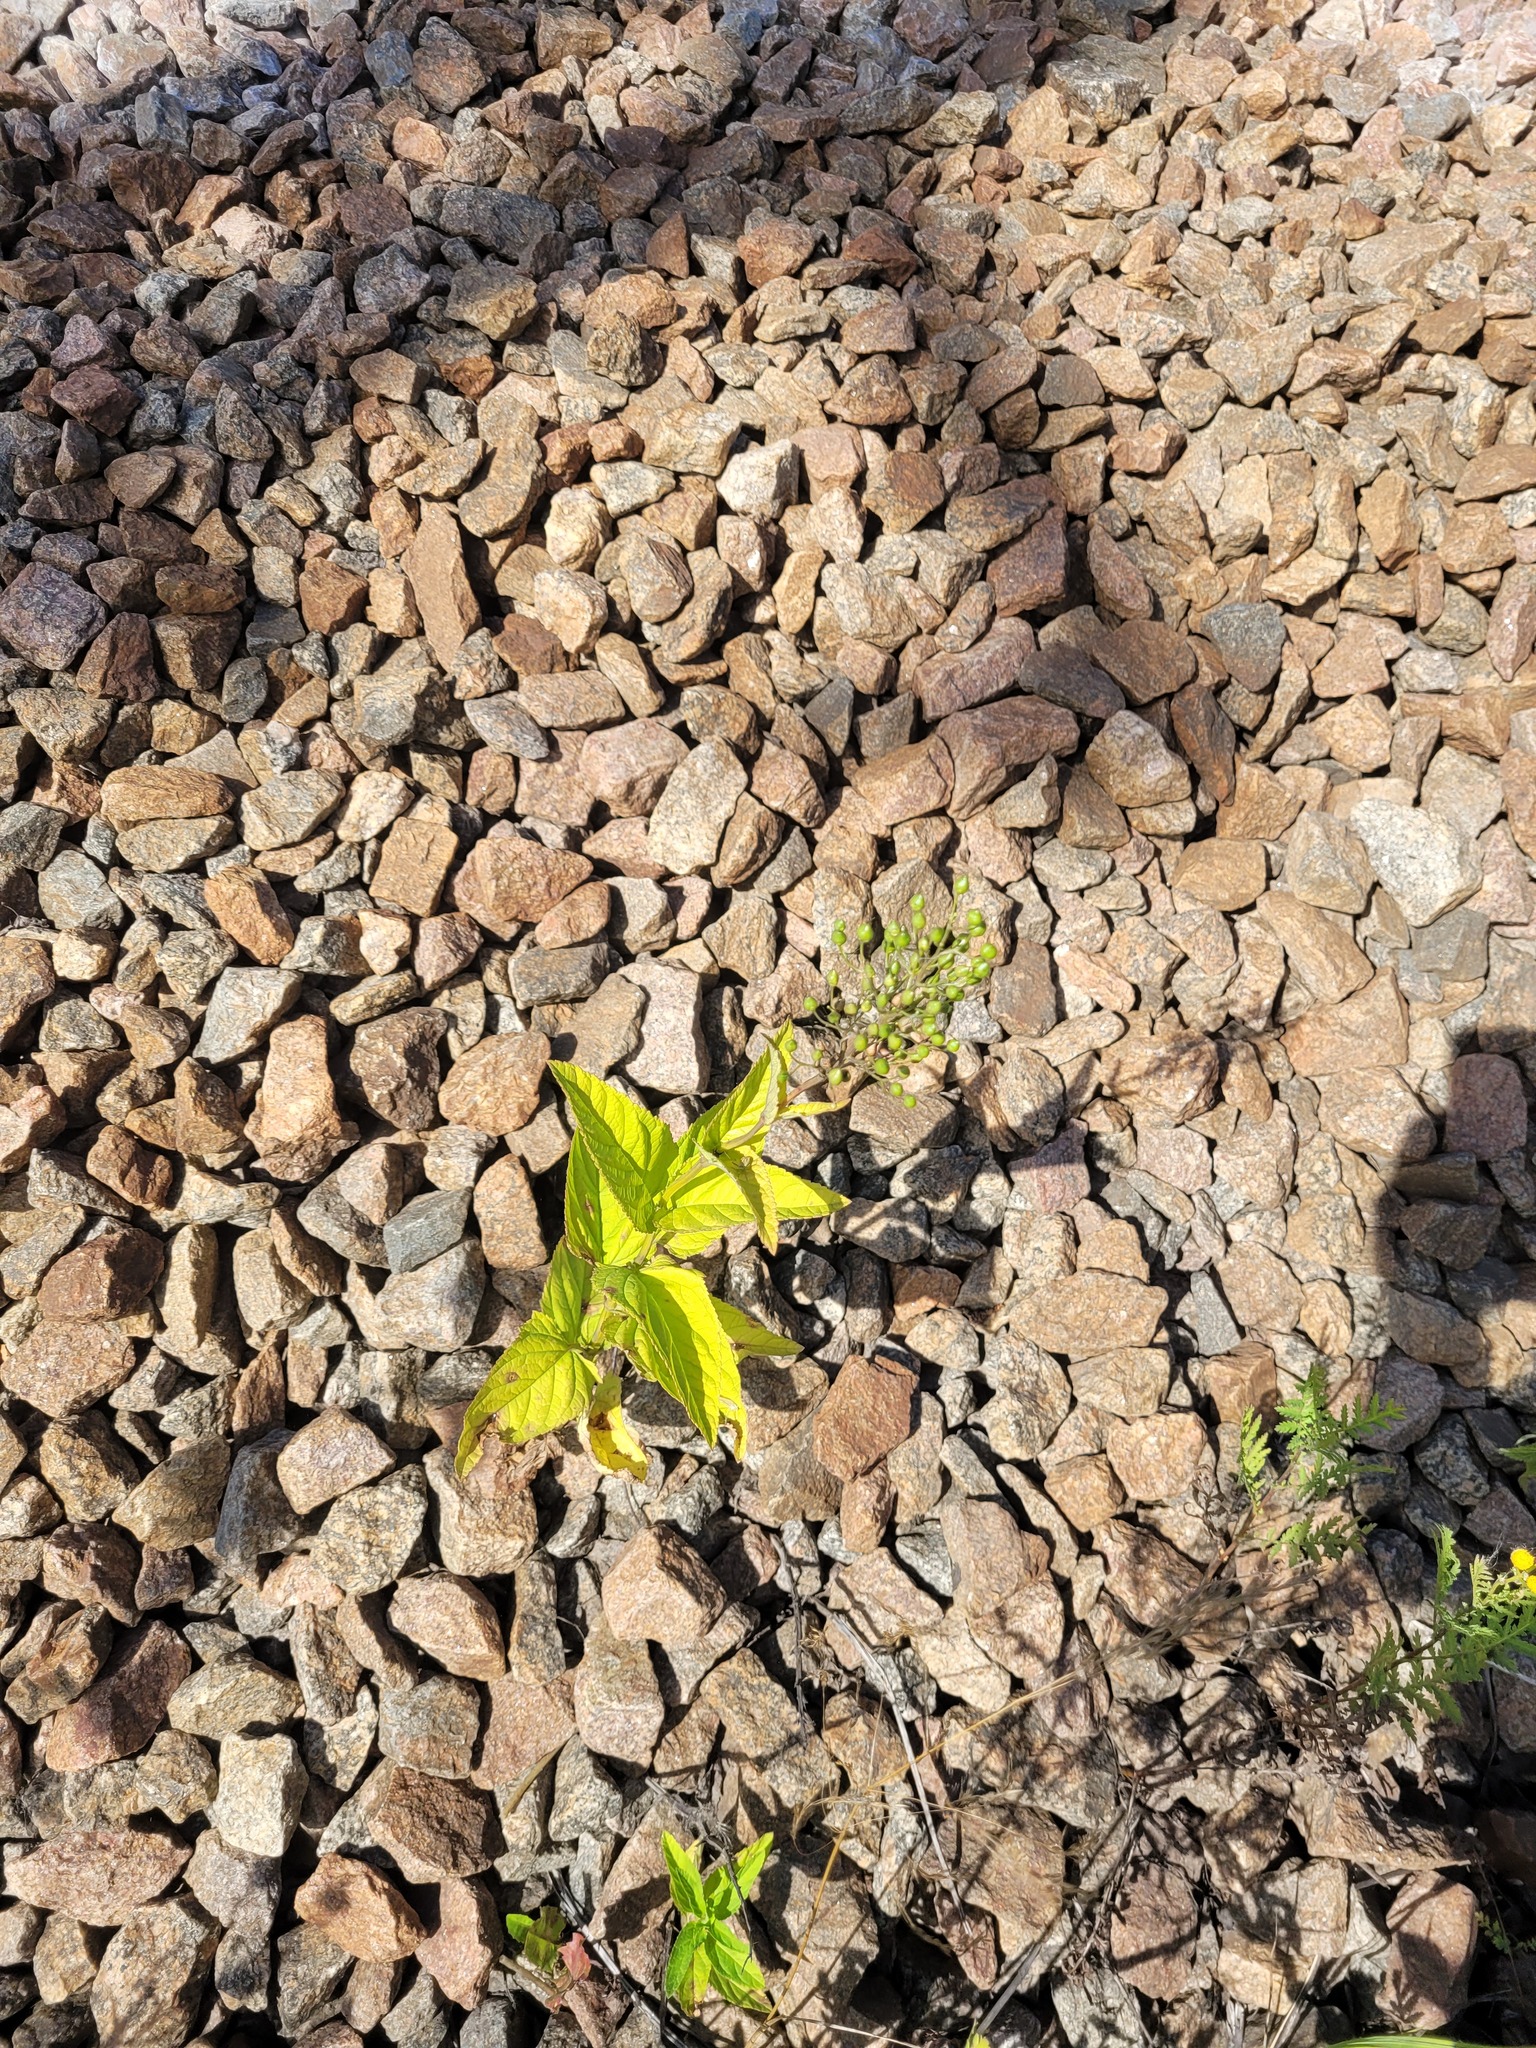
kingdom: Plantae
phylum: Tracheophyta
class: Magnoliopsida
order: Lamiales
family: Scrophulariaceae
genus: Scrophularia
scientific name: Scrophularia nodosa
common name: Common figwort
